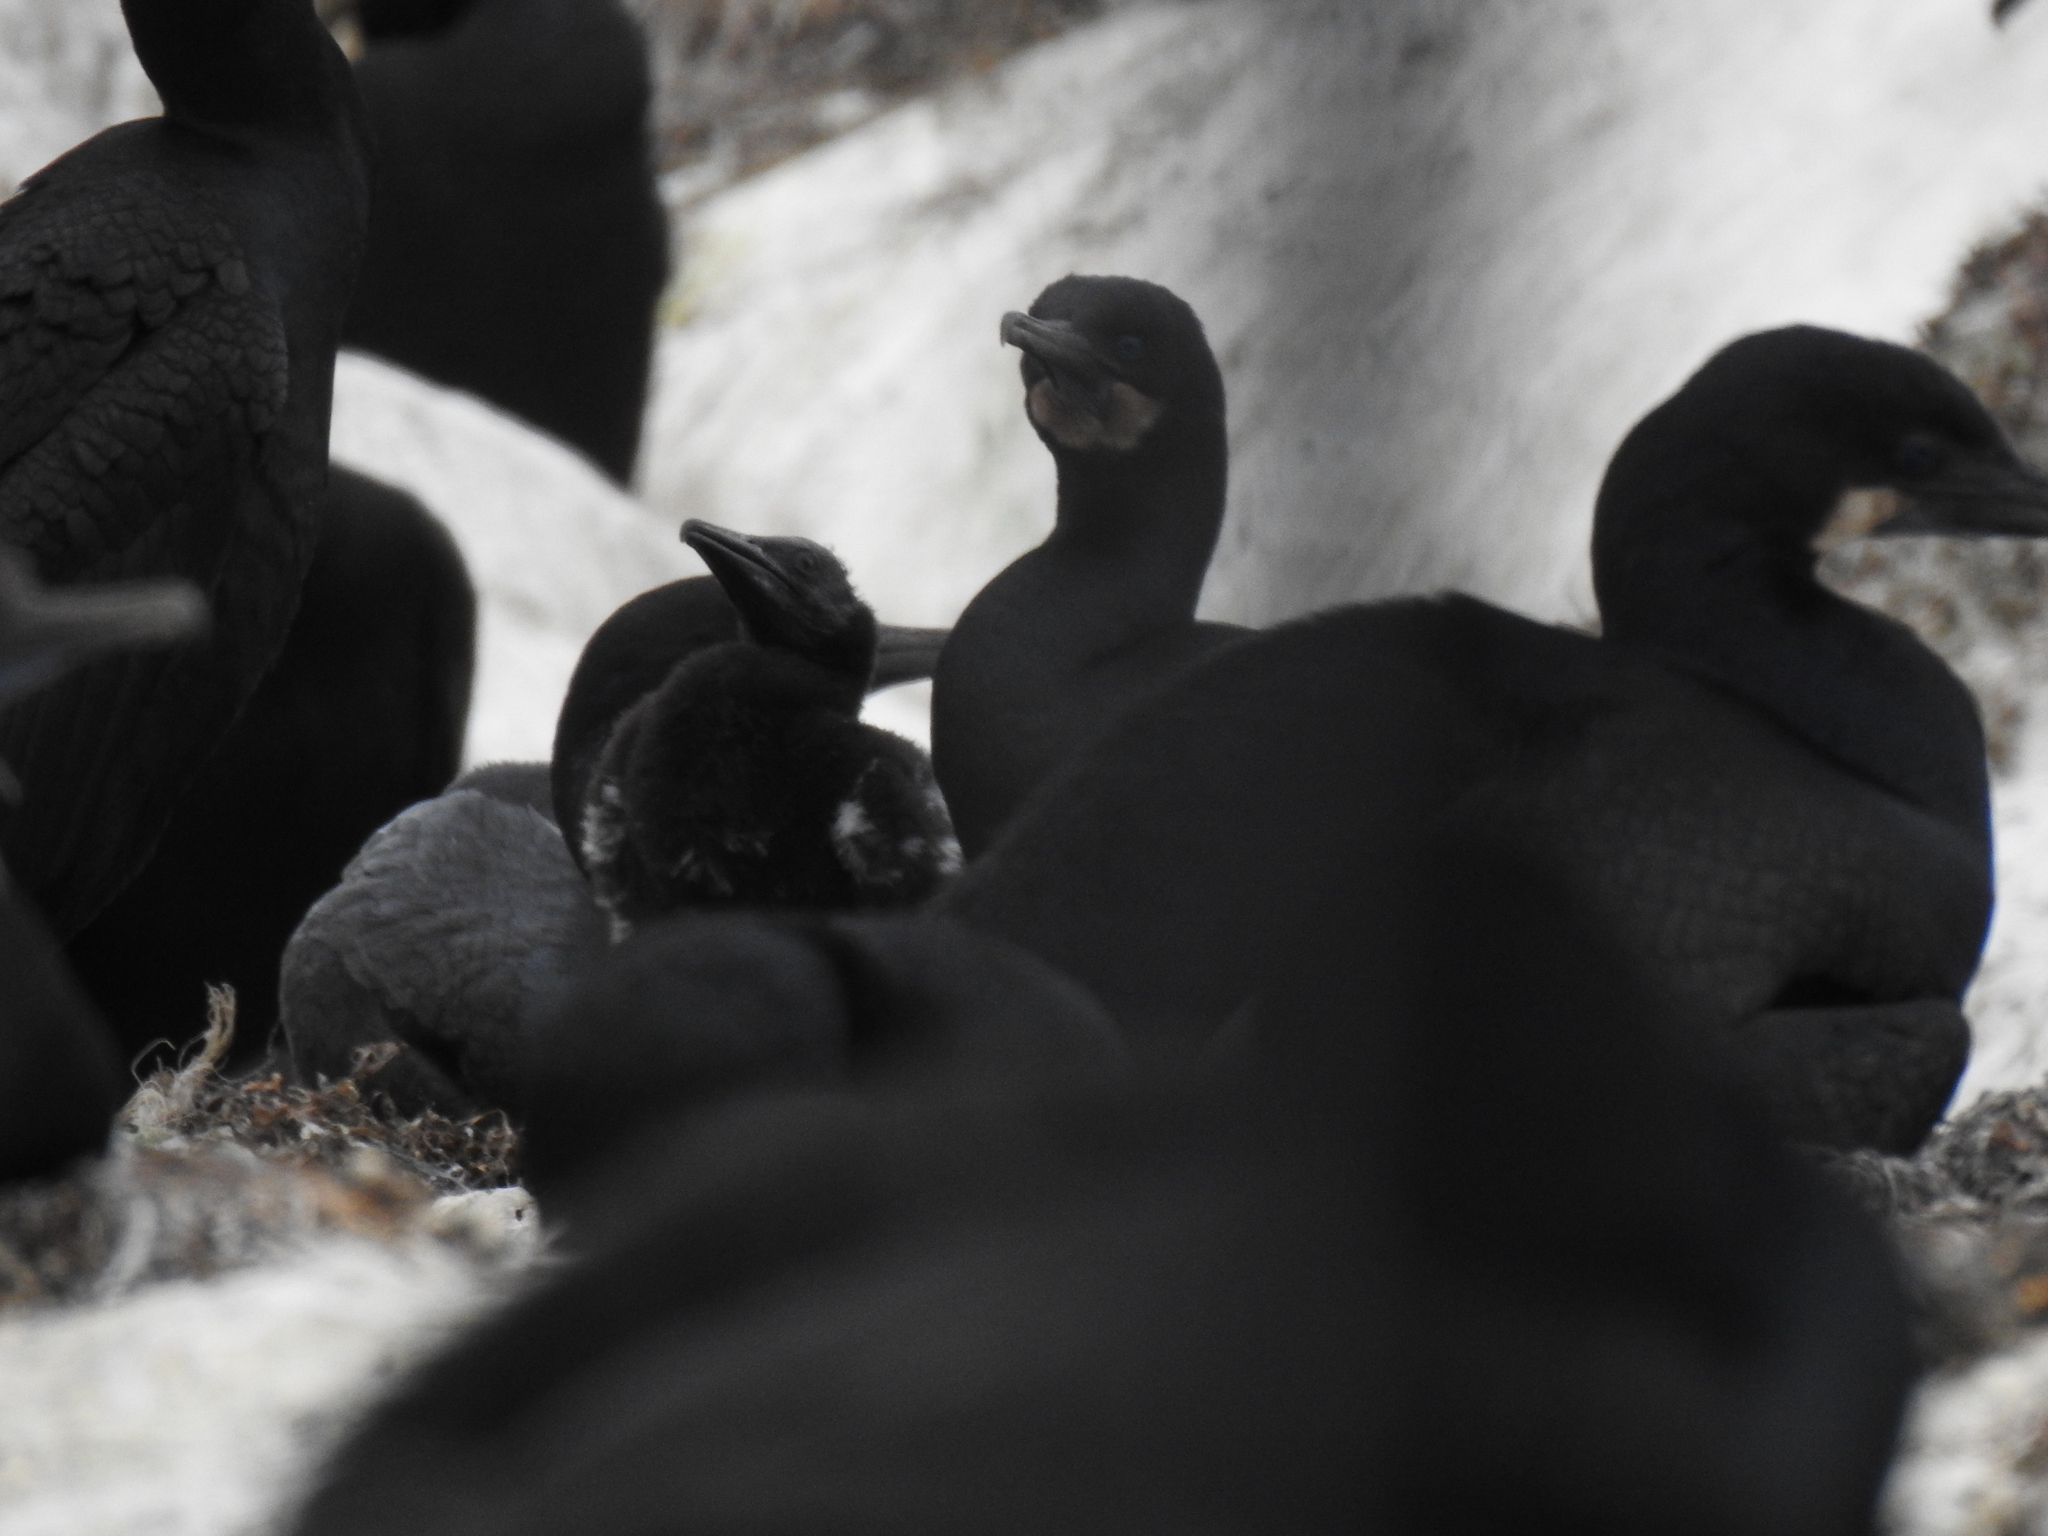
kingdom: Animalia
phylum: Chordata
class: Aves
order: Suliformes
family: Phalacrocoracidae
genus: Urile
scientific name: Urile penicillatus
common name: Brandt's cormorant
